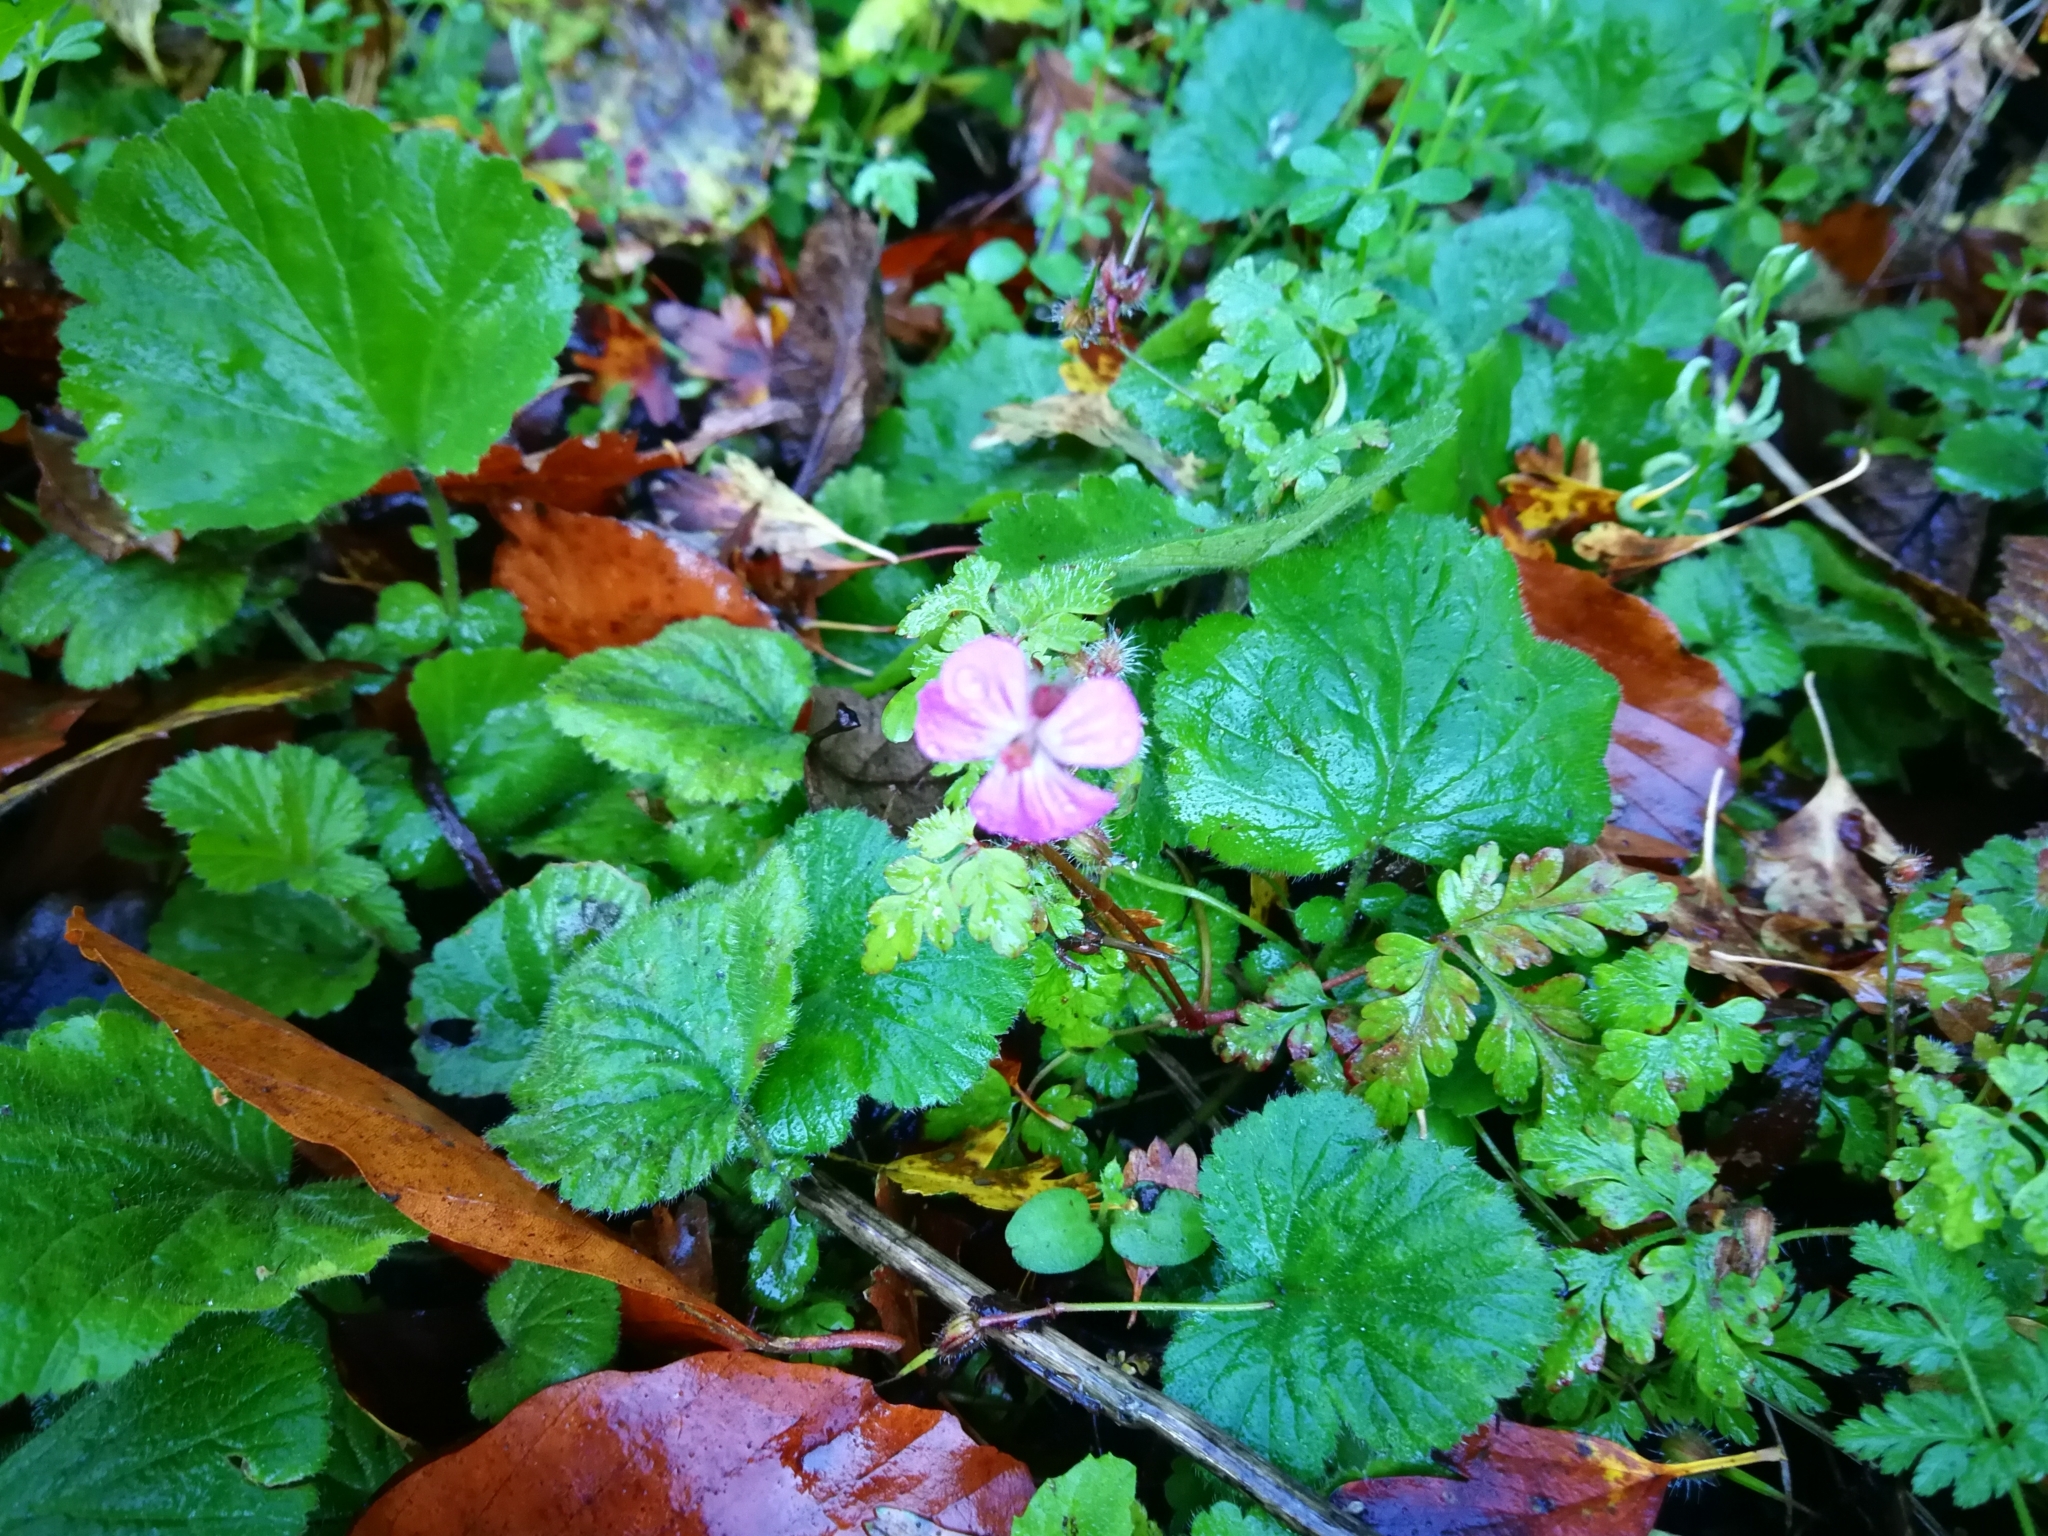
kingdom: Plantae
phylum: Tracheophyta
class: Magnoliopsida
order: Geraniales
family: Geraniaceae
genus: Geranium
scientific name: Geranium robertianum
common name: Herb-robert
